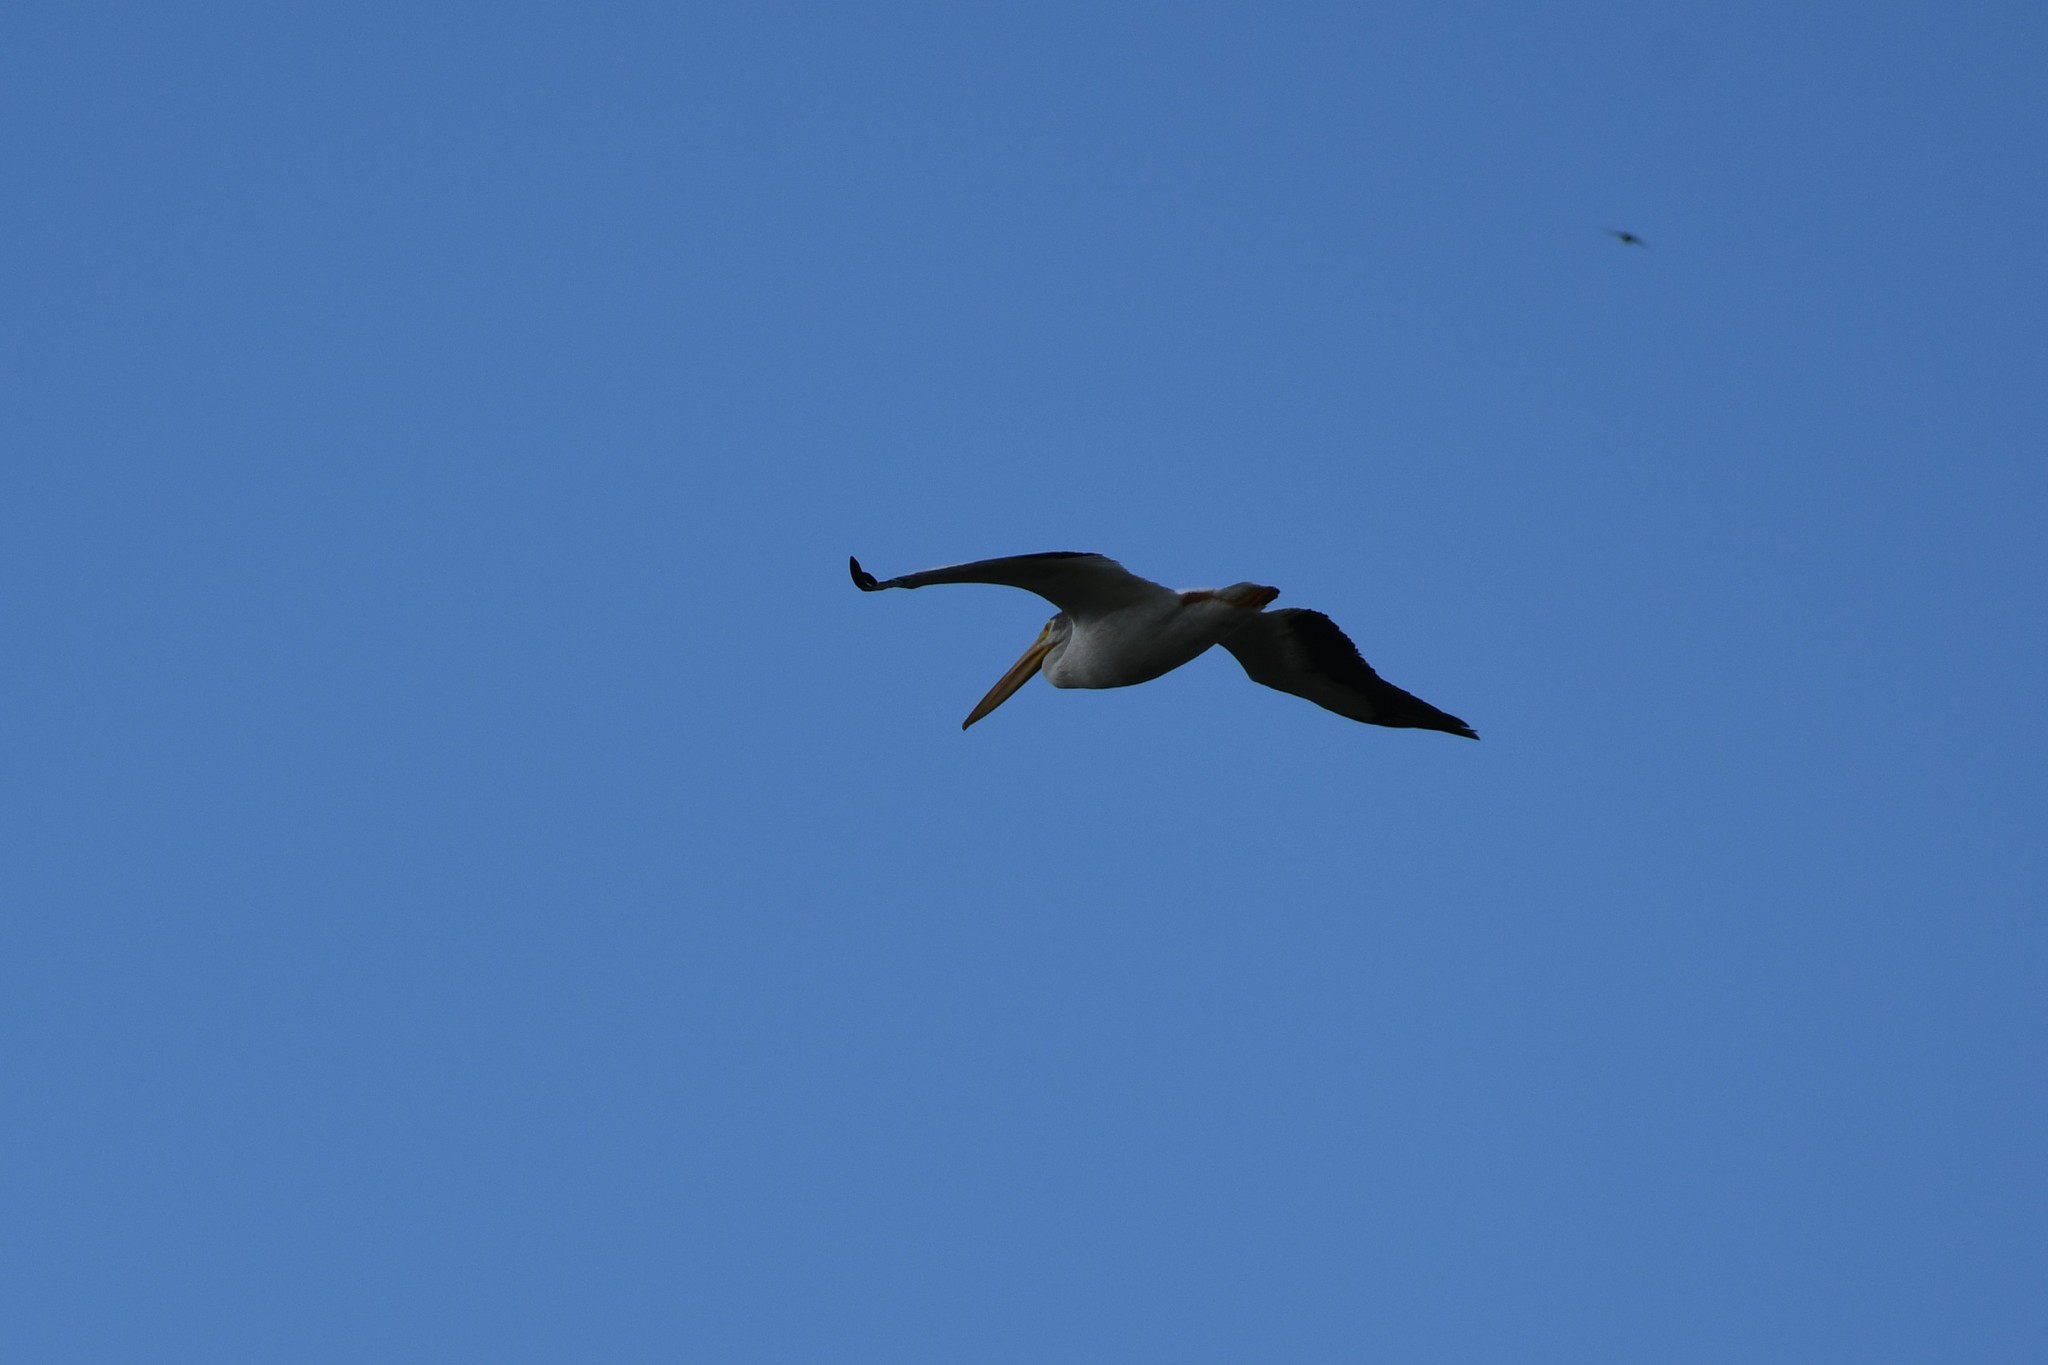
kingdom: Animalia
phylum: Chordata
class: Aves
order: Pelecaniformes
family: Pelecanidae
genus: Pelecanus
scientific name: Pelecanus erythrorhynchos
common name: American white pelican
